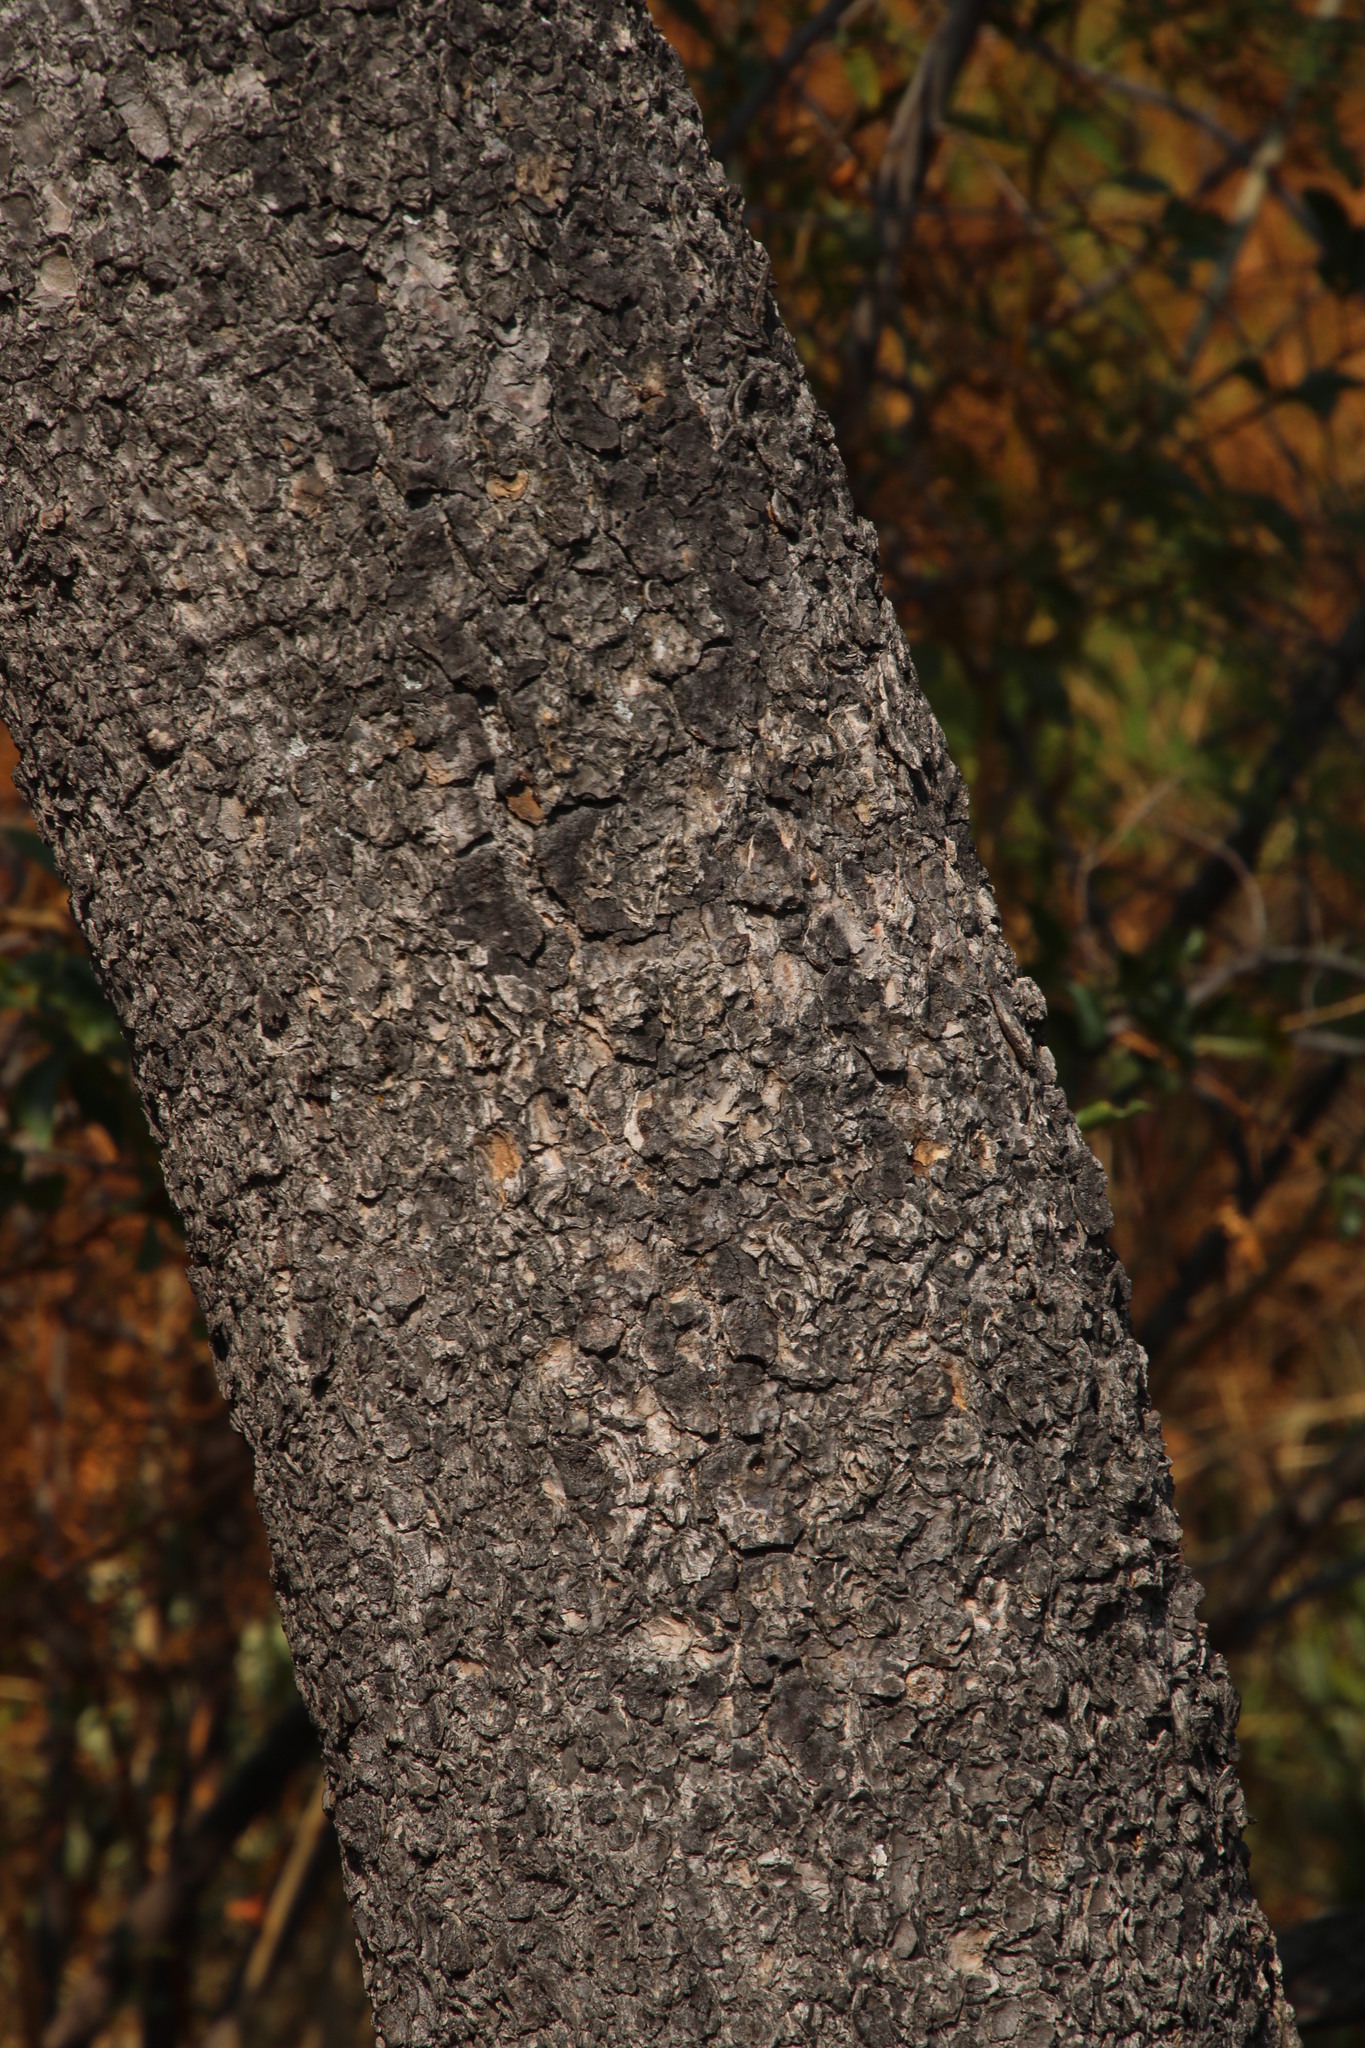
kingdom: Plantae
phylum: Tracheophyta
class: Magnoliopsida
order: Fabales
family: Fabaceae
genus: Peltophorum
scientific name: Peltophorum africanum
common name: African black wattle
